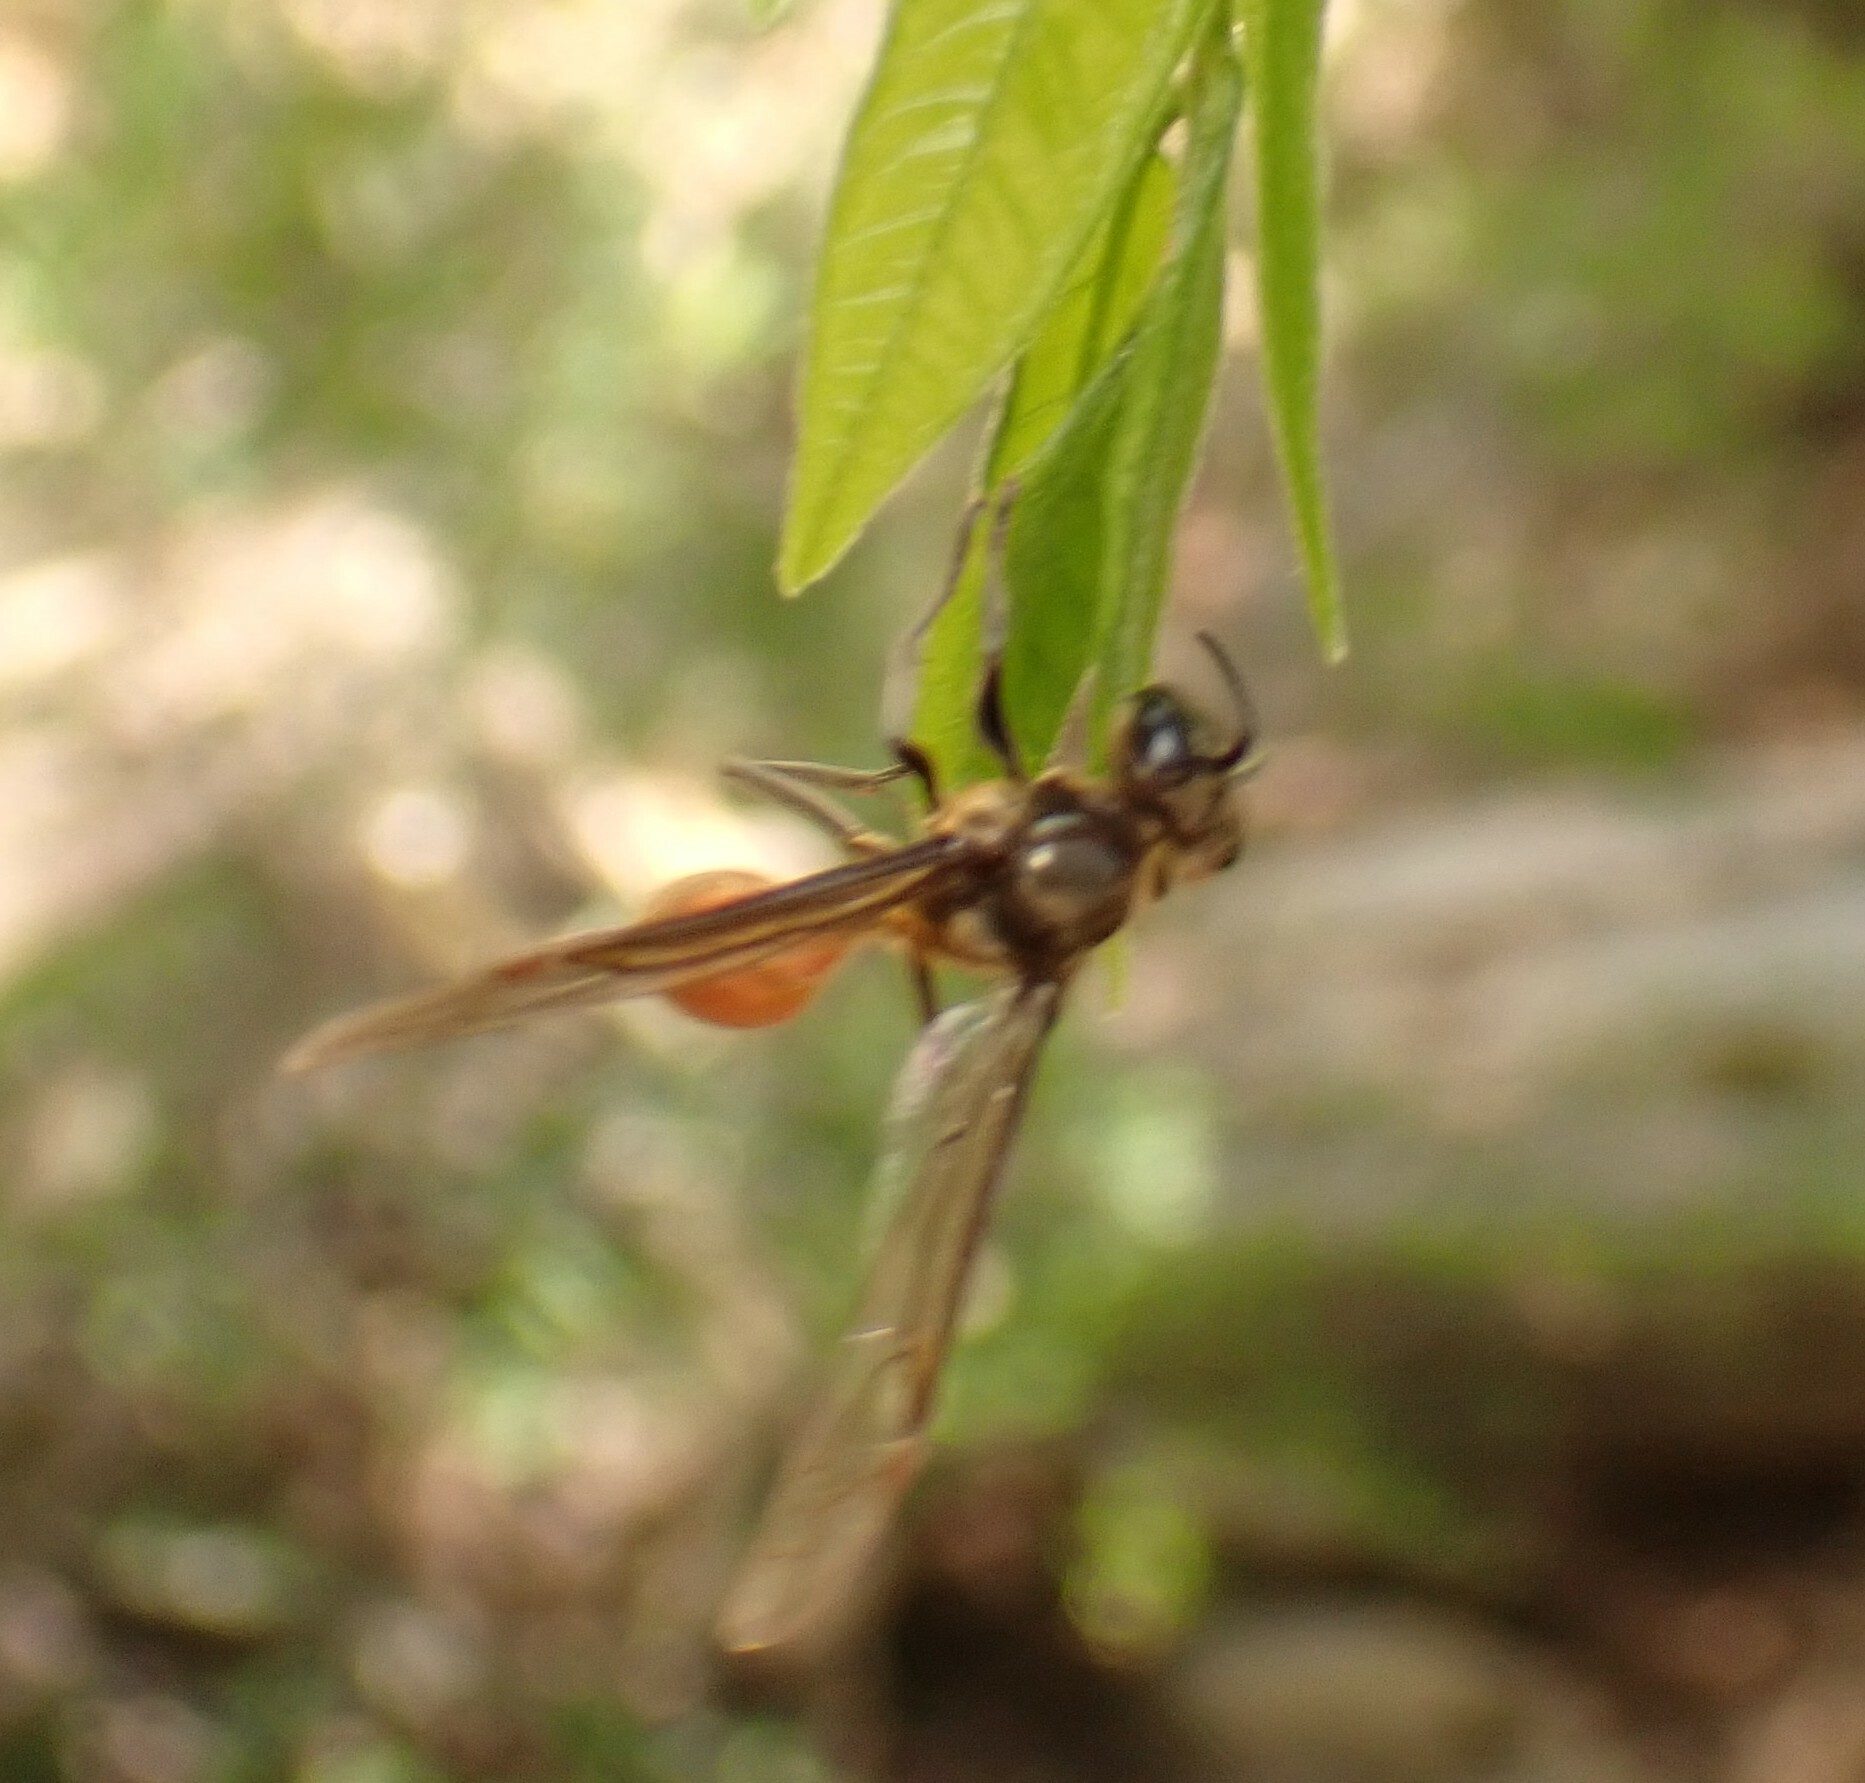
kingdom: Animalia
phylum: Arthropoda
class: Insecta
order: Hymenoptera
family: Eumenidae
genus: Polybia
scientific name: Polybia dimidiata
